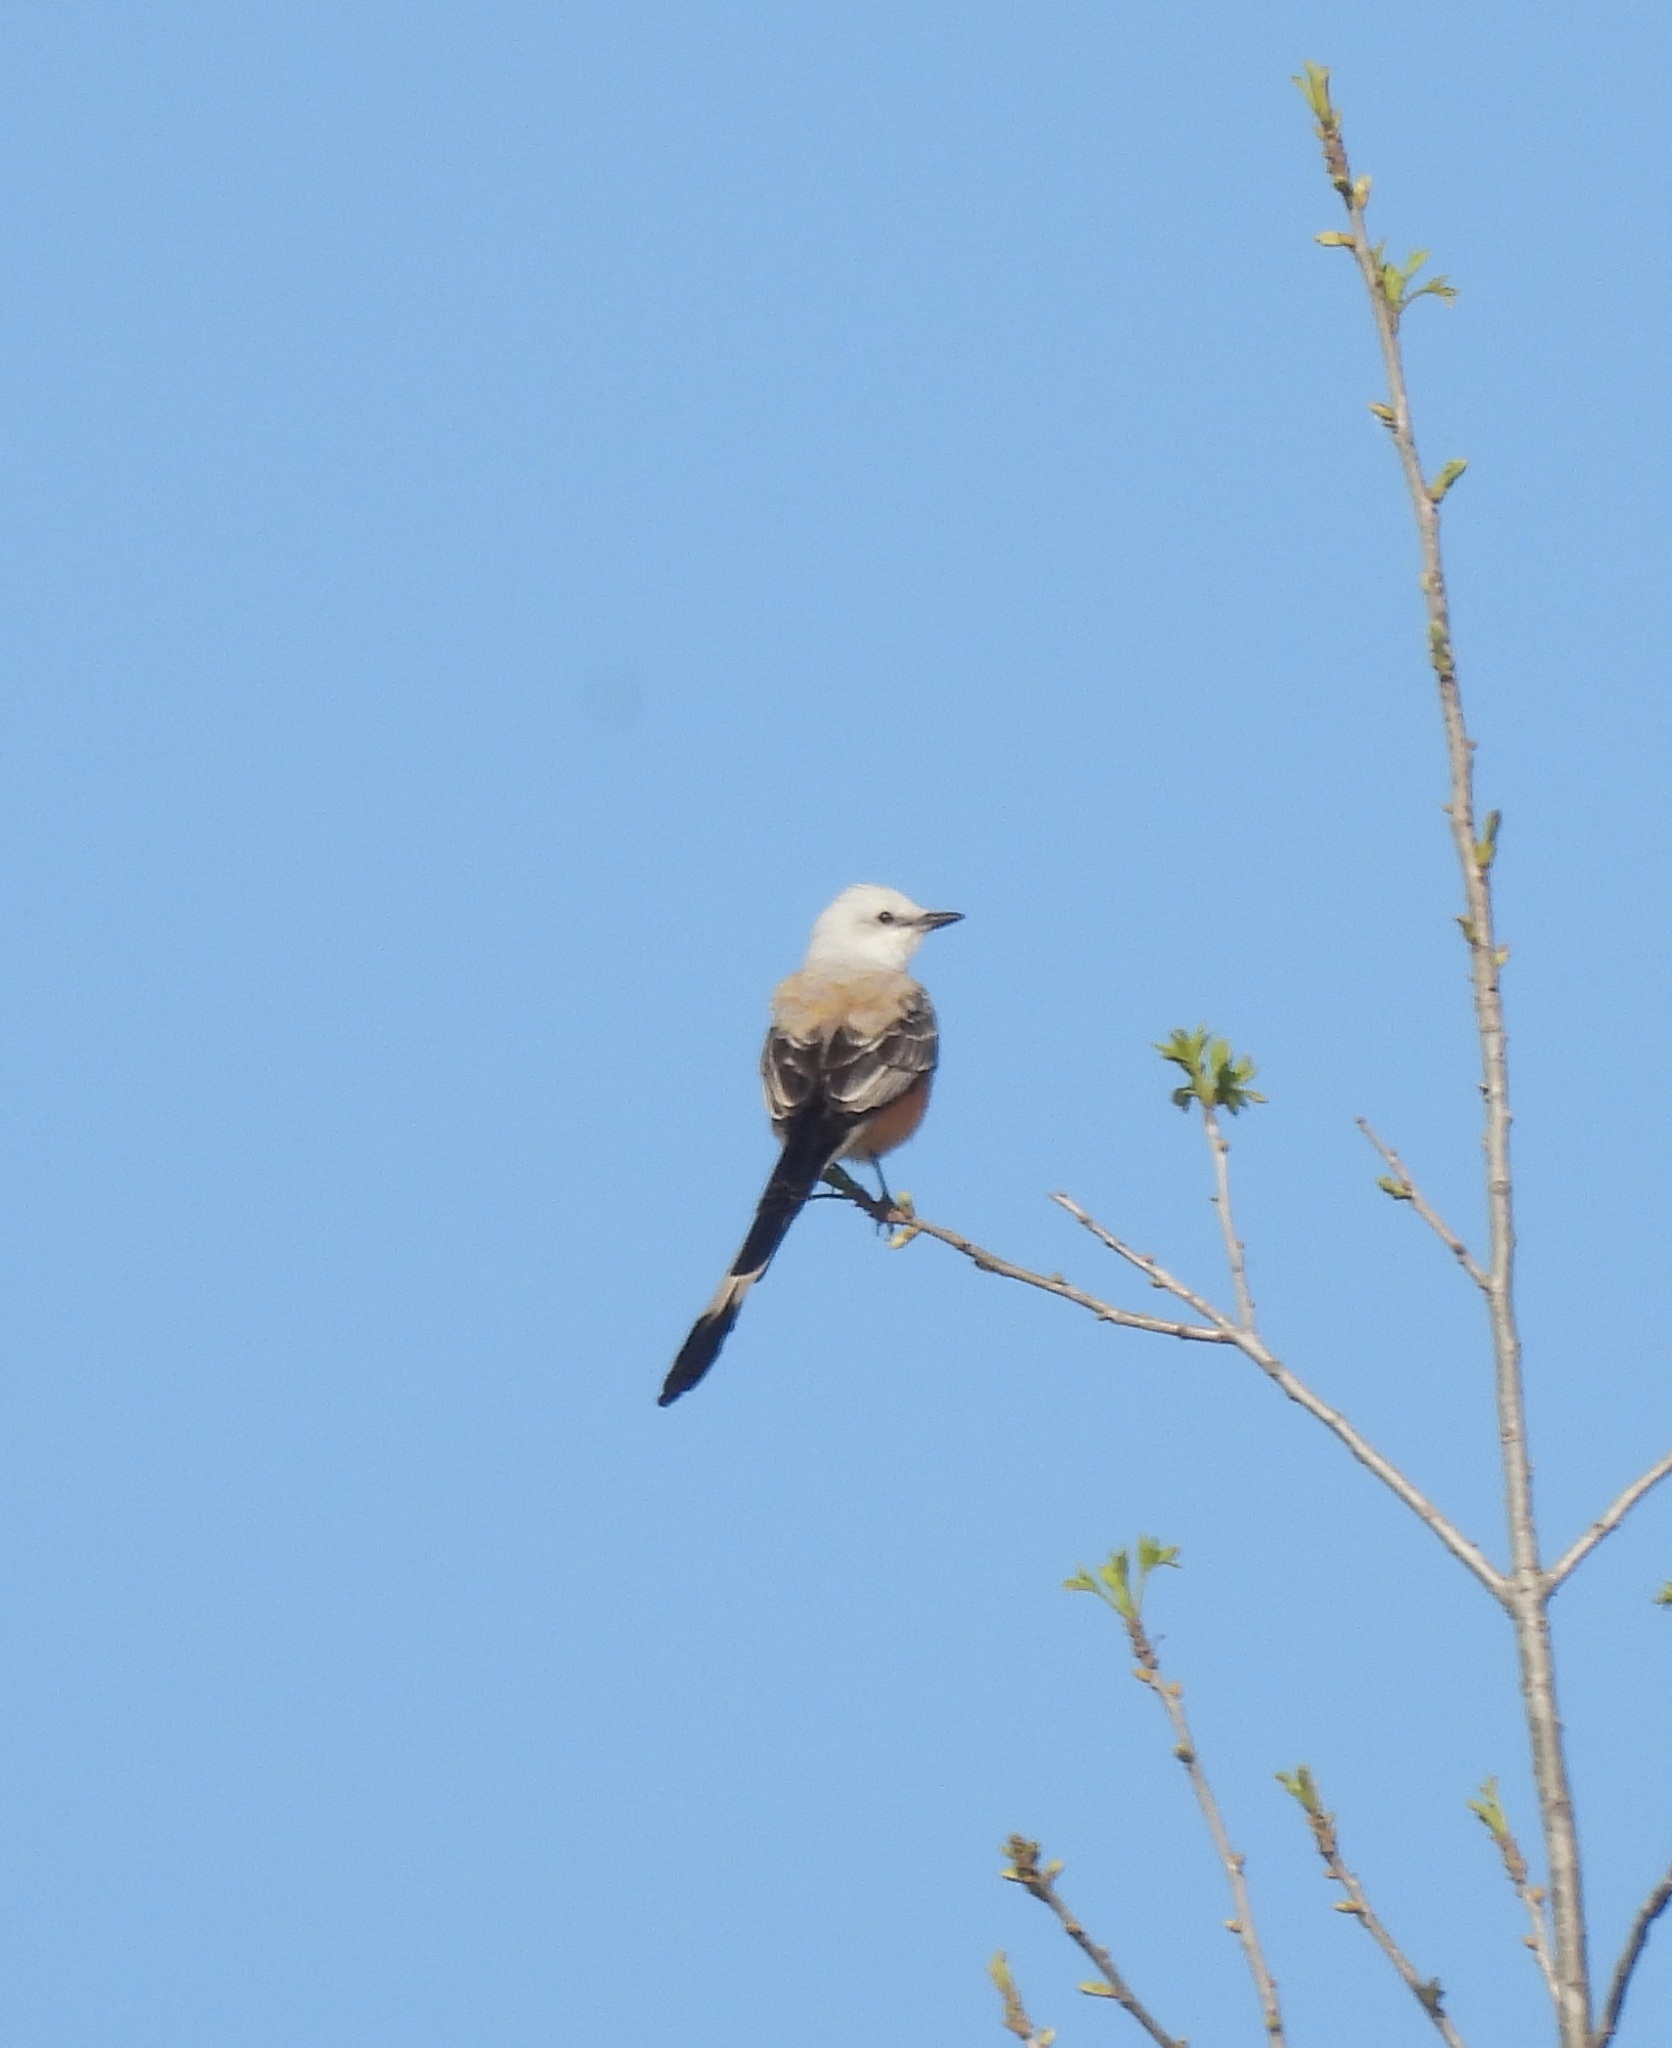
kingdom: Animalia
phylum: Chordata
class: Aves
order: Passeriformes
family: Tyrannidae
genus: Tyrannus
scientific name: Tyrannus forficatus
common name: Scissor-tailed flycatcher
